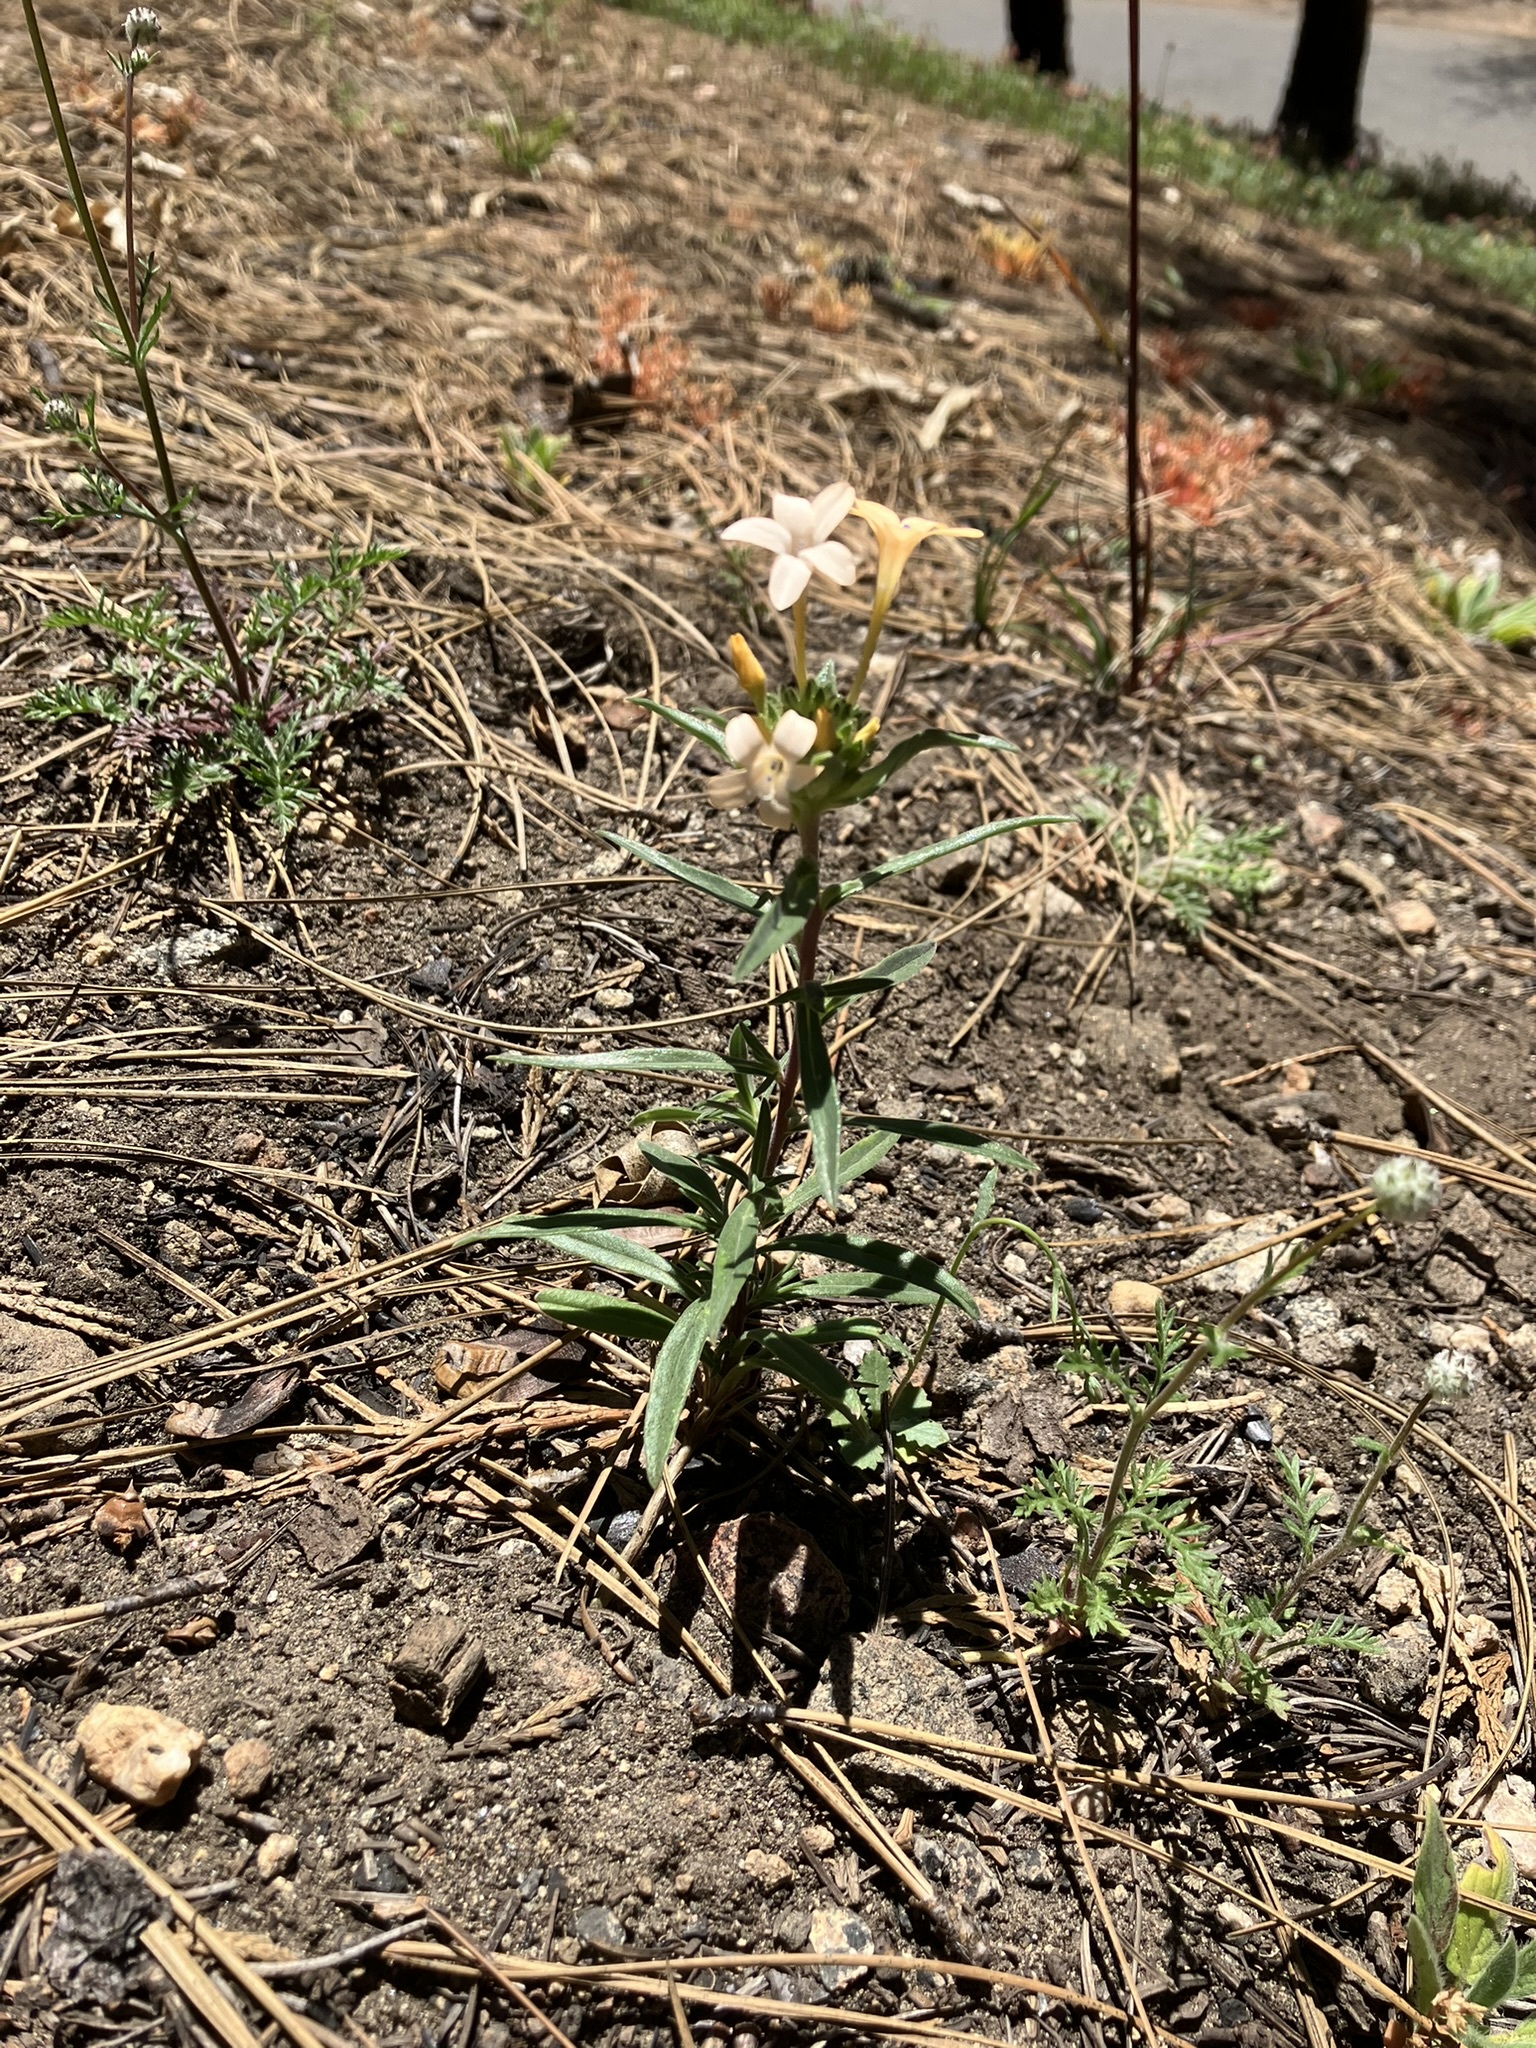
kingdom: Plantae
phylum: Tracheophyta
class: Magnoliopsida
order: Ericales
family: Polemoniaceae
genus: Collomia
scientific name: Collomia grandiflora
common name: California strawflower
